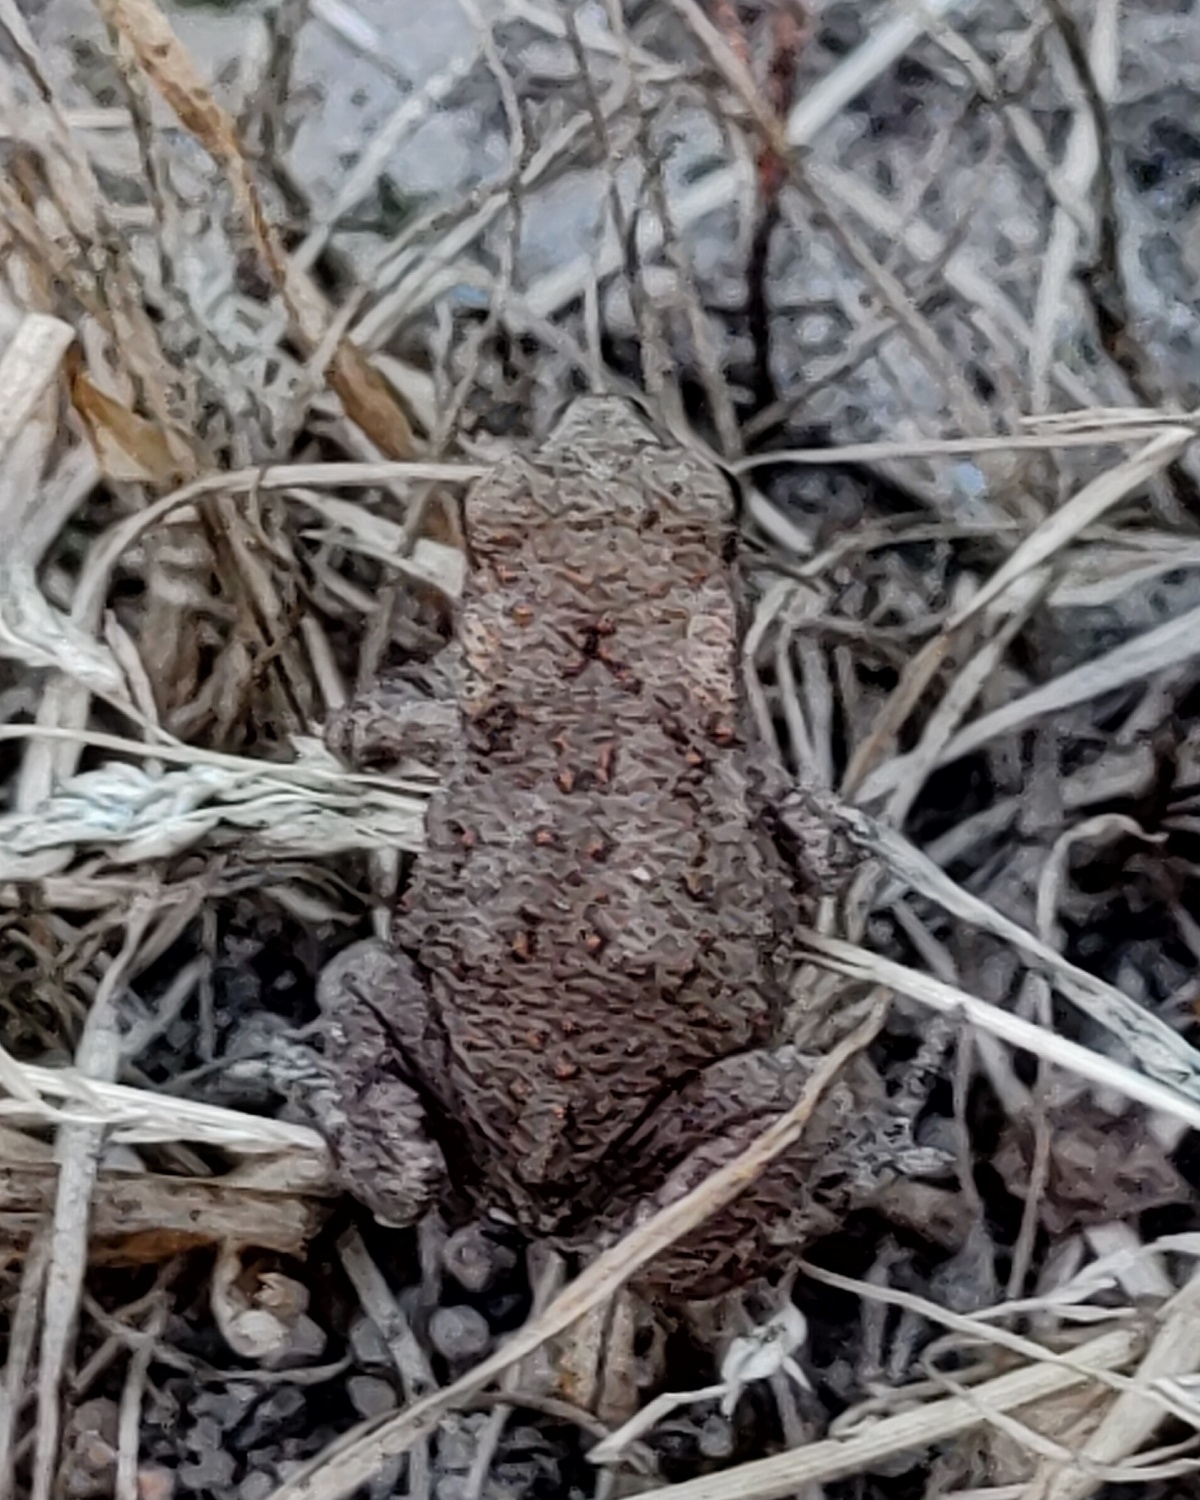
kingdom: Animalia
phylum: Chordata
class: Amphibia
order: Anura
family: Bufonidae
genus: Bufo
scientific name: Bufo bufo
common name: Common toad
